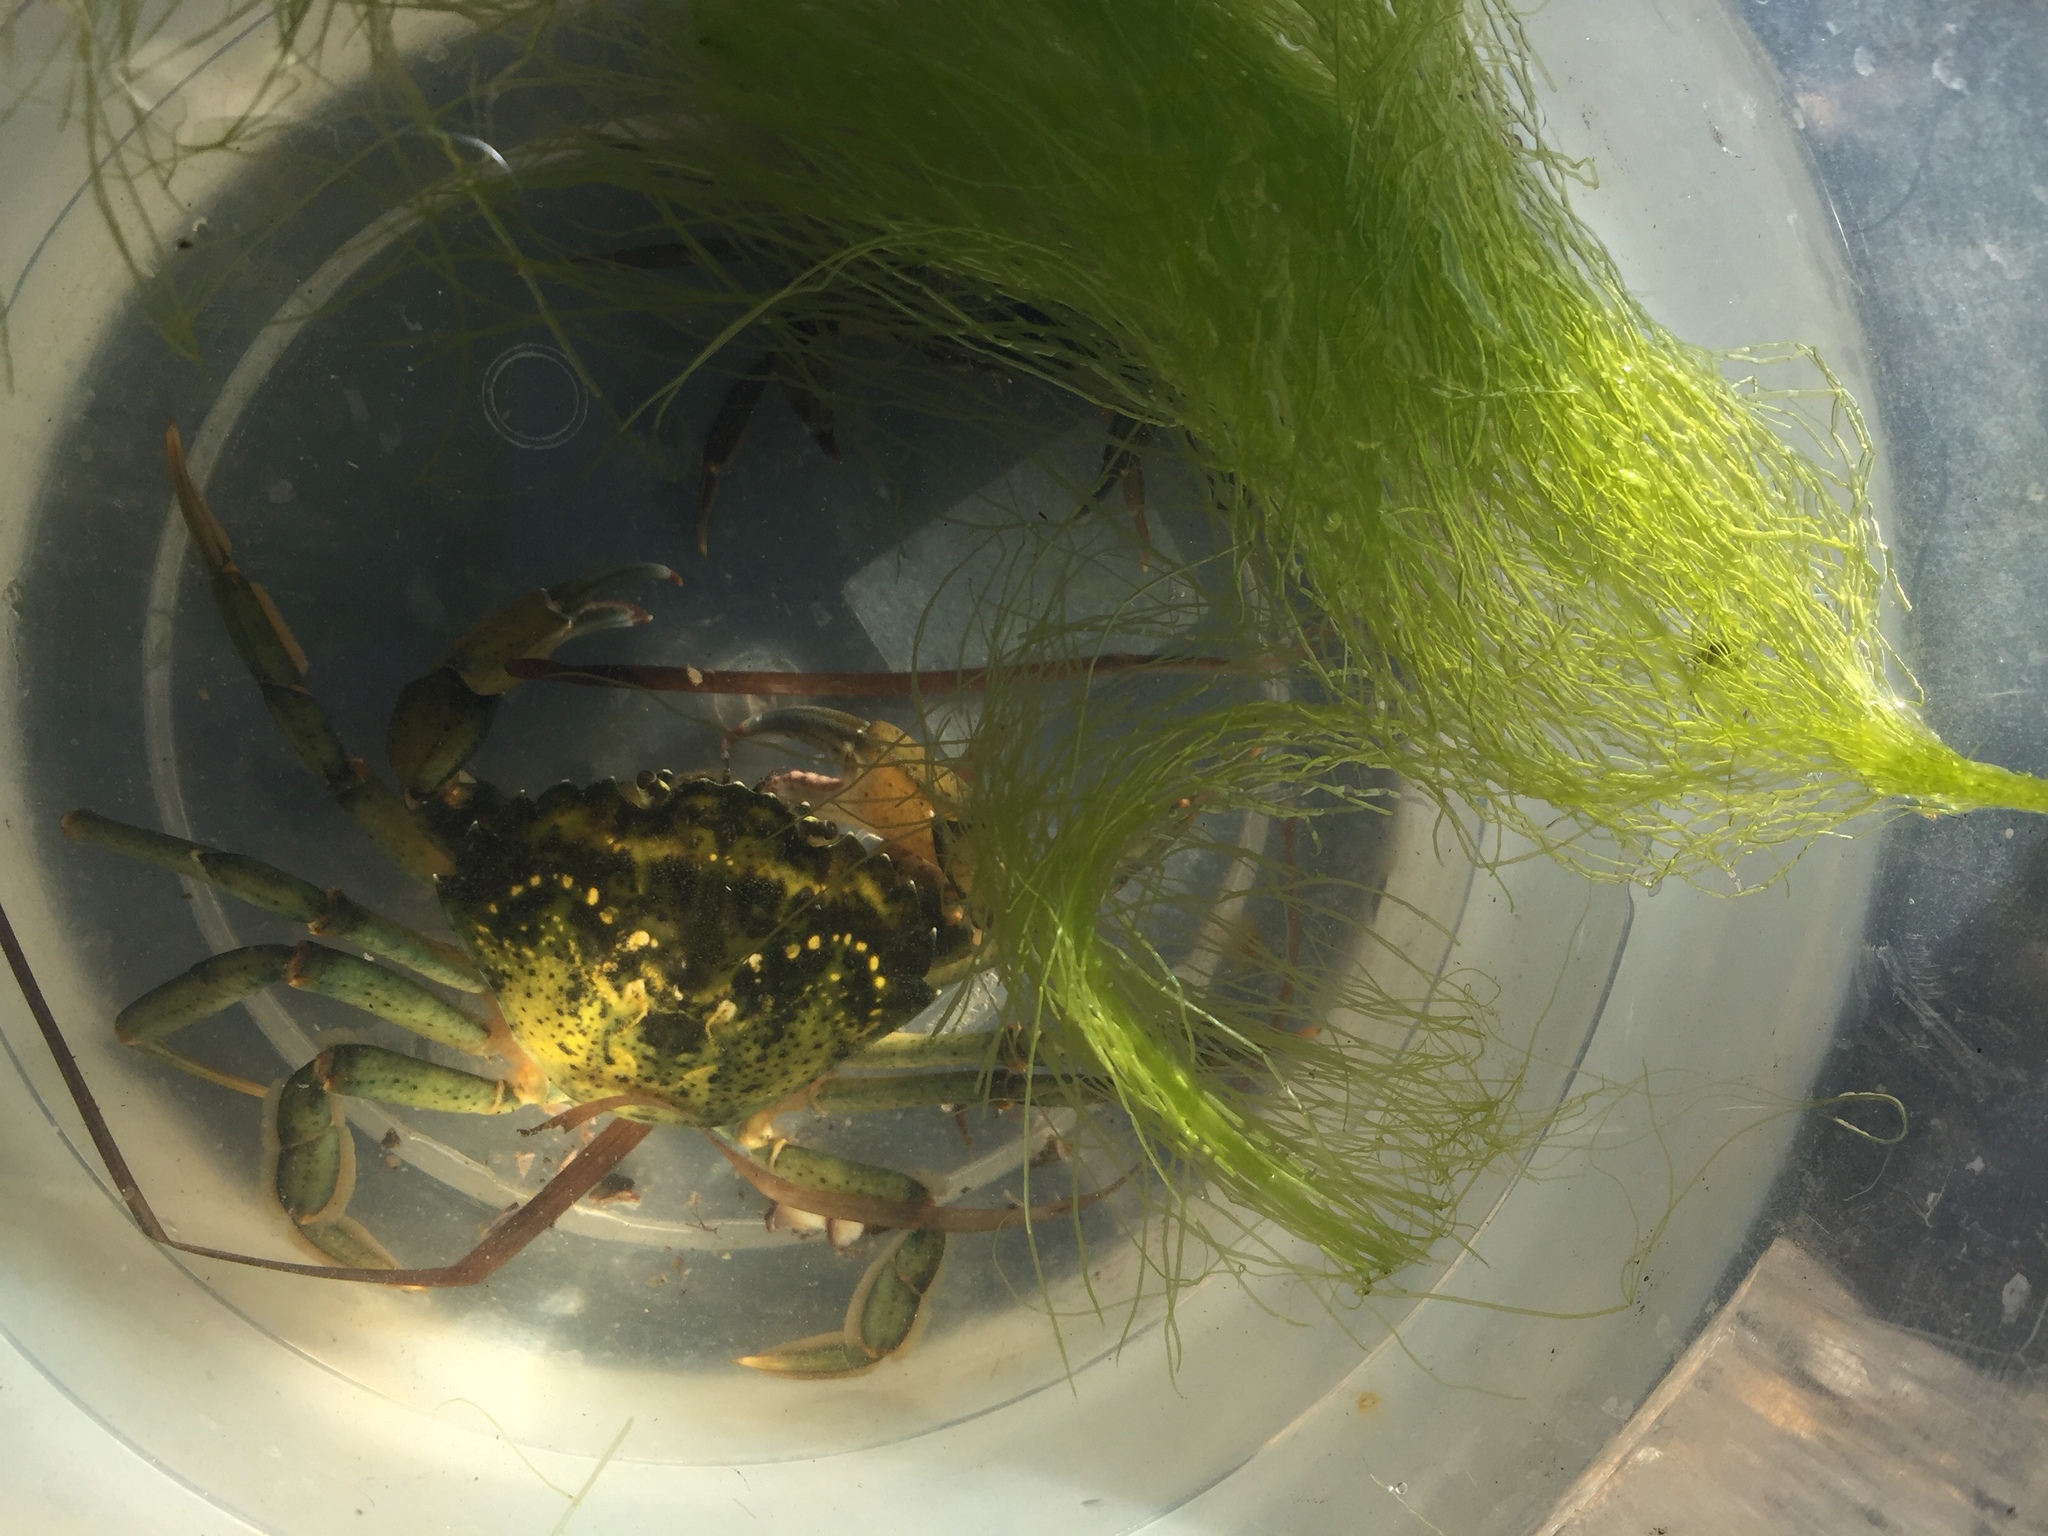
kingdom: Animalia
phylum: Arthropoda
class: Malacostraca
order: Decapoda
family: Carcinidae
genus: Carcinus
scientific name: Carcinus maenas
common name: European green crab
